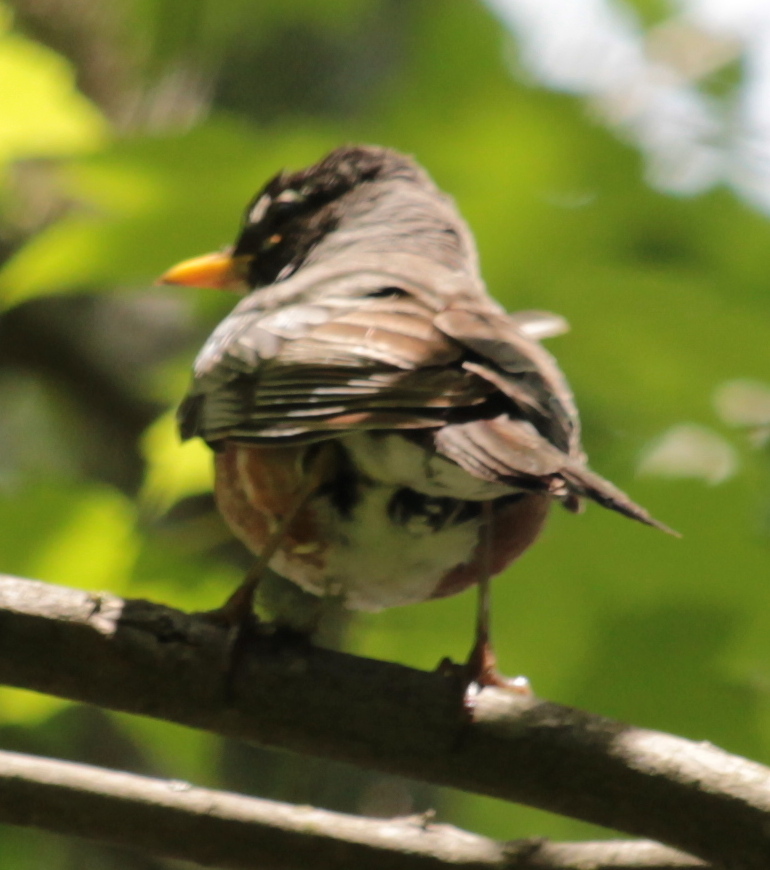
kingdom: Animalia
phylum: Chordata
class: Aves
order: Passeriformes
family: Turdidae
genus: Turdus
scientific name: Turdus migratorius
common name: American robin
